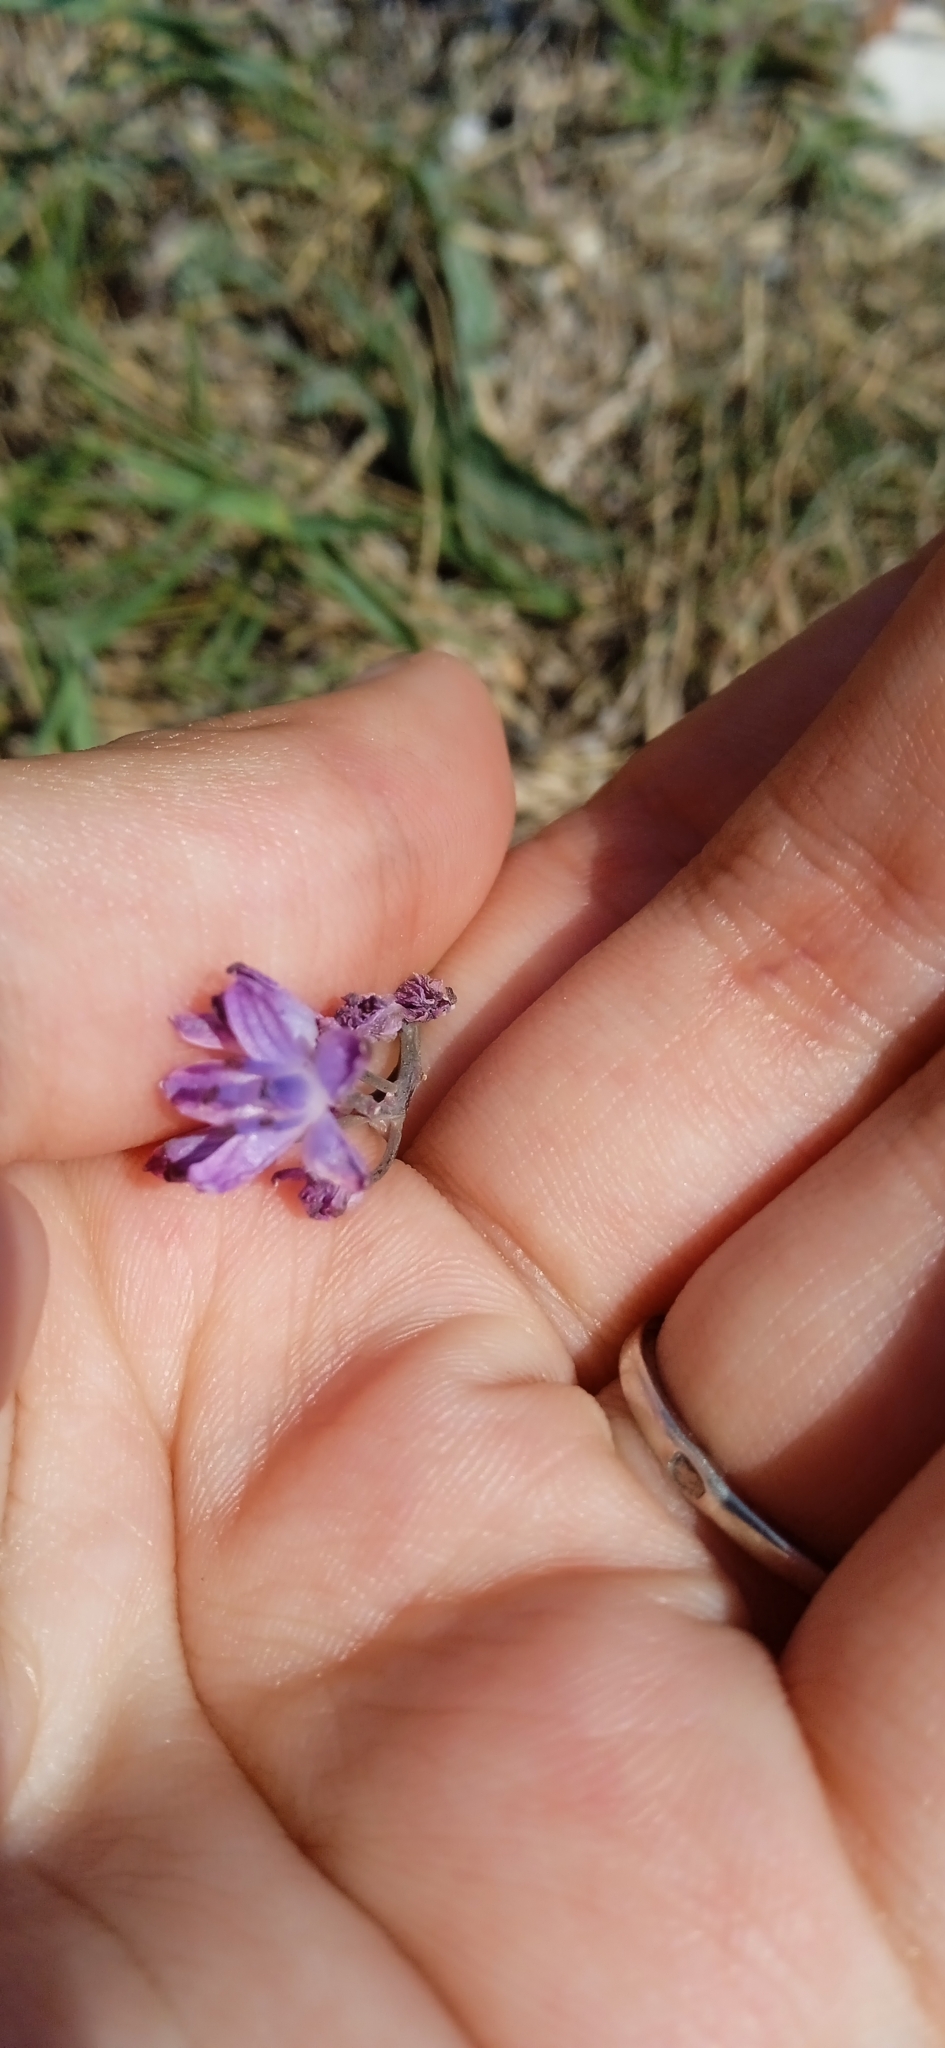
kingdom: Plantae
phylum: Tracheophyta
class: Liliopsida
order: Asparagales
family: Asparagaceae
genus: Prospero
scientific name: Prospero autumnale
